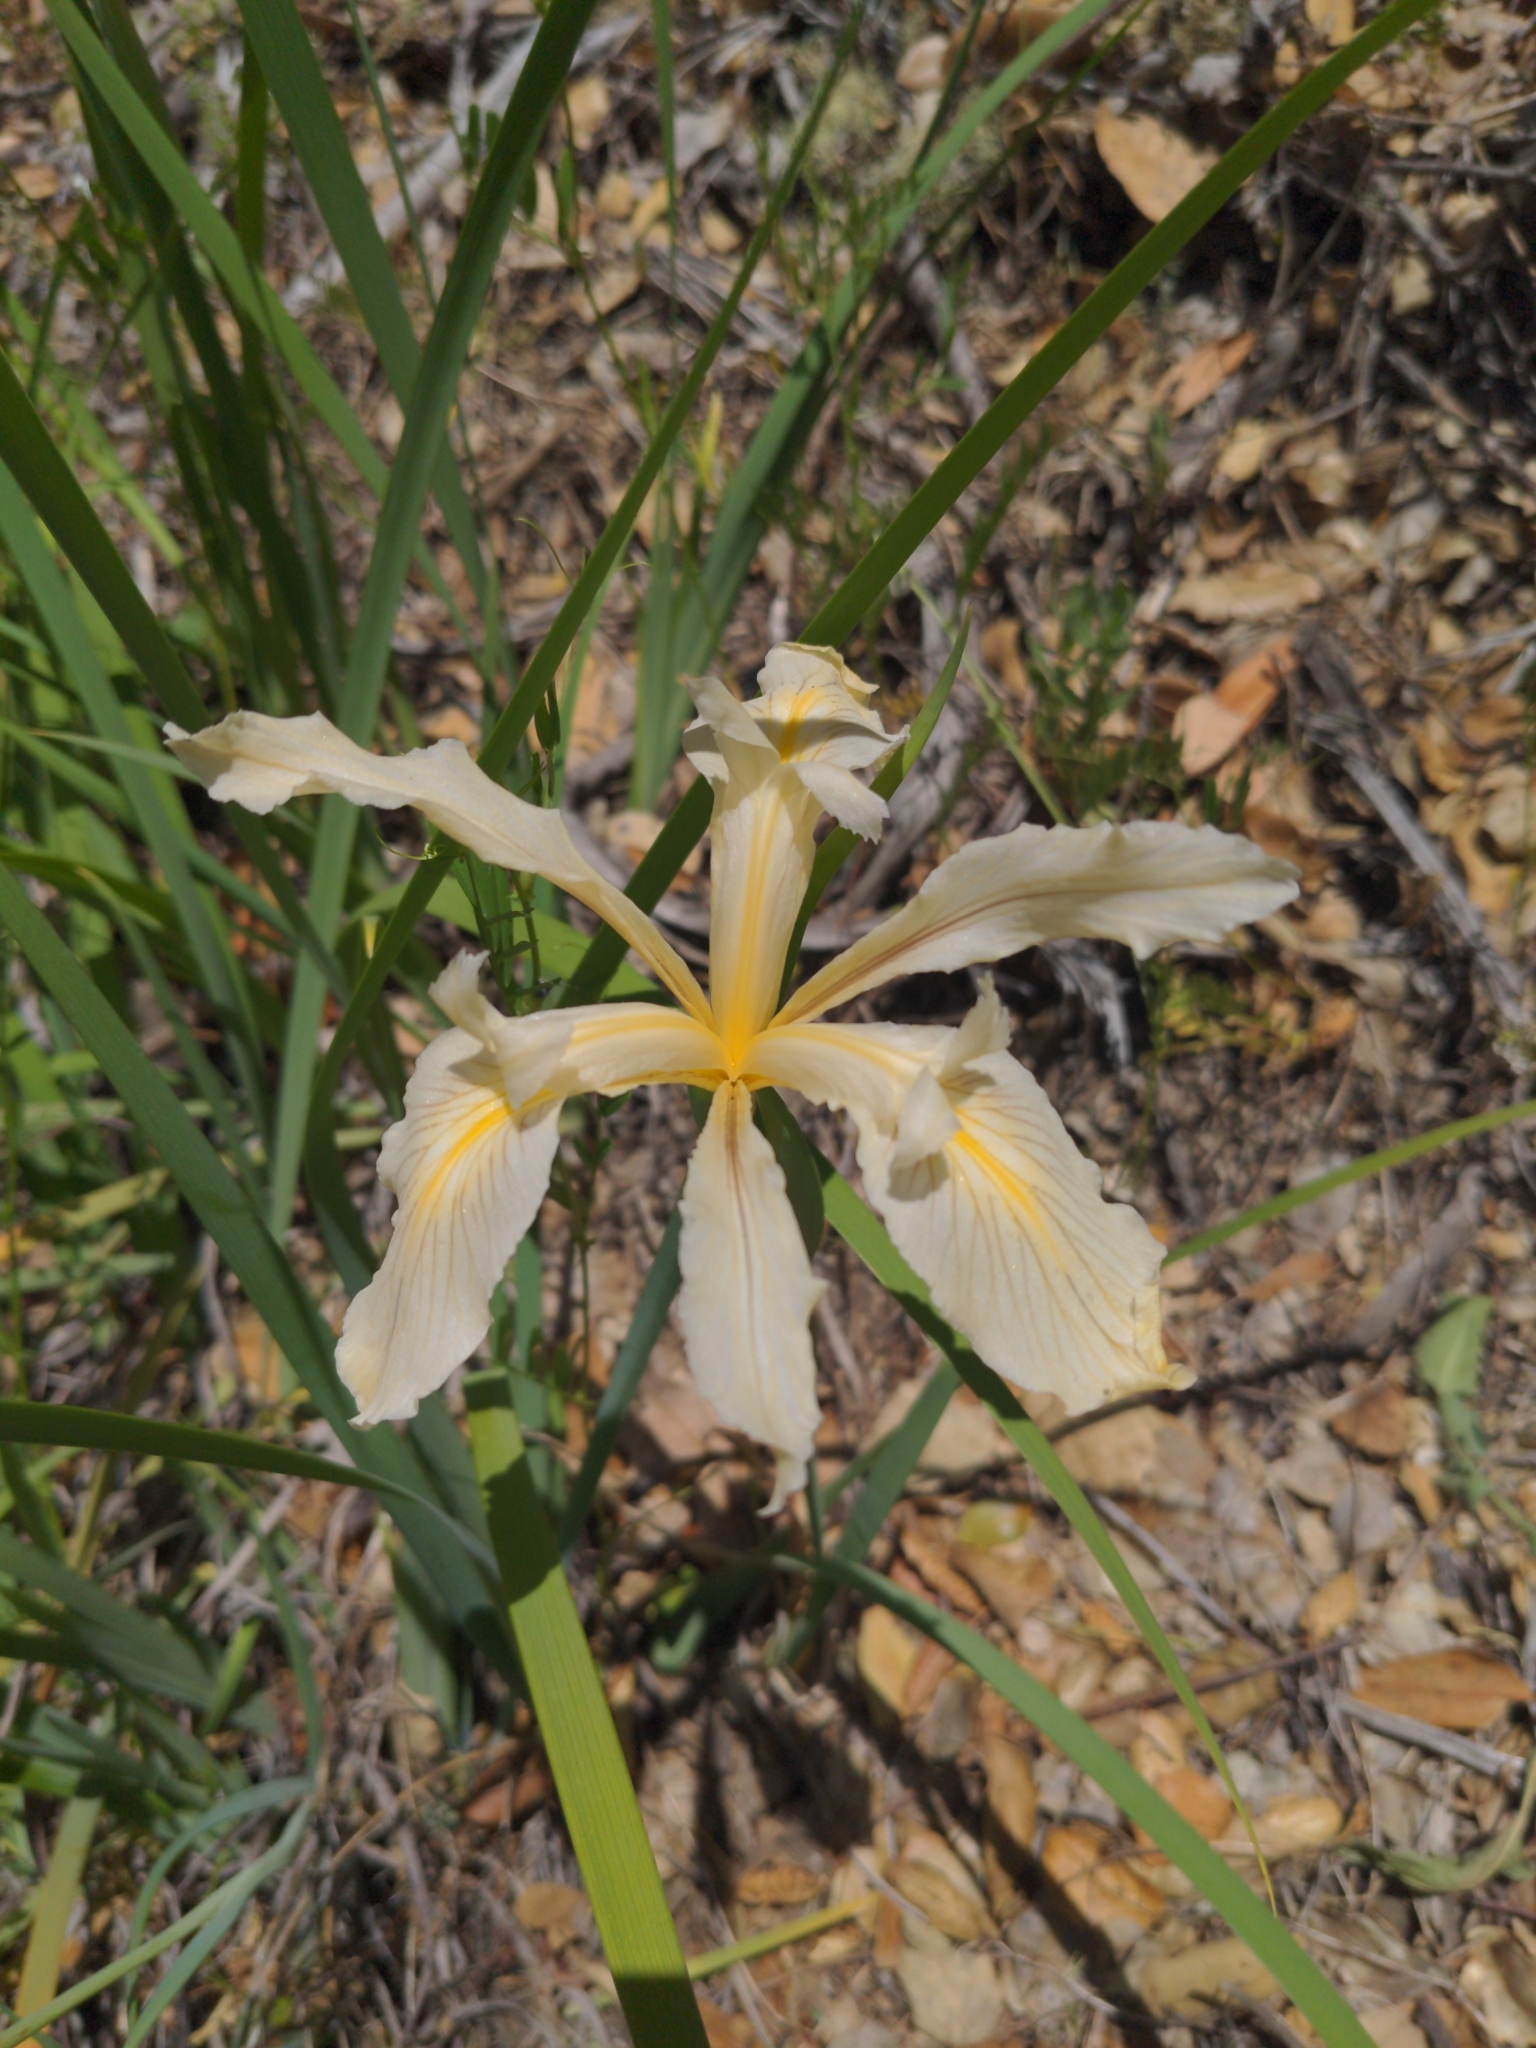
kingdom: Plantae
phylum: Tracheophyta
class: Liliopsida
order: Asparagales
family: Iridaceae
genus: Iris
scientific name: Iris fernaldii
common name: Fernald's iris
